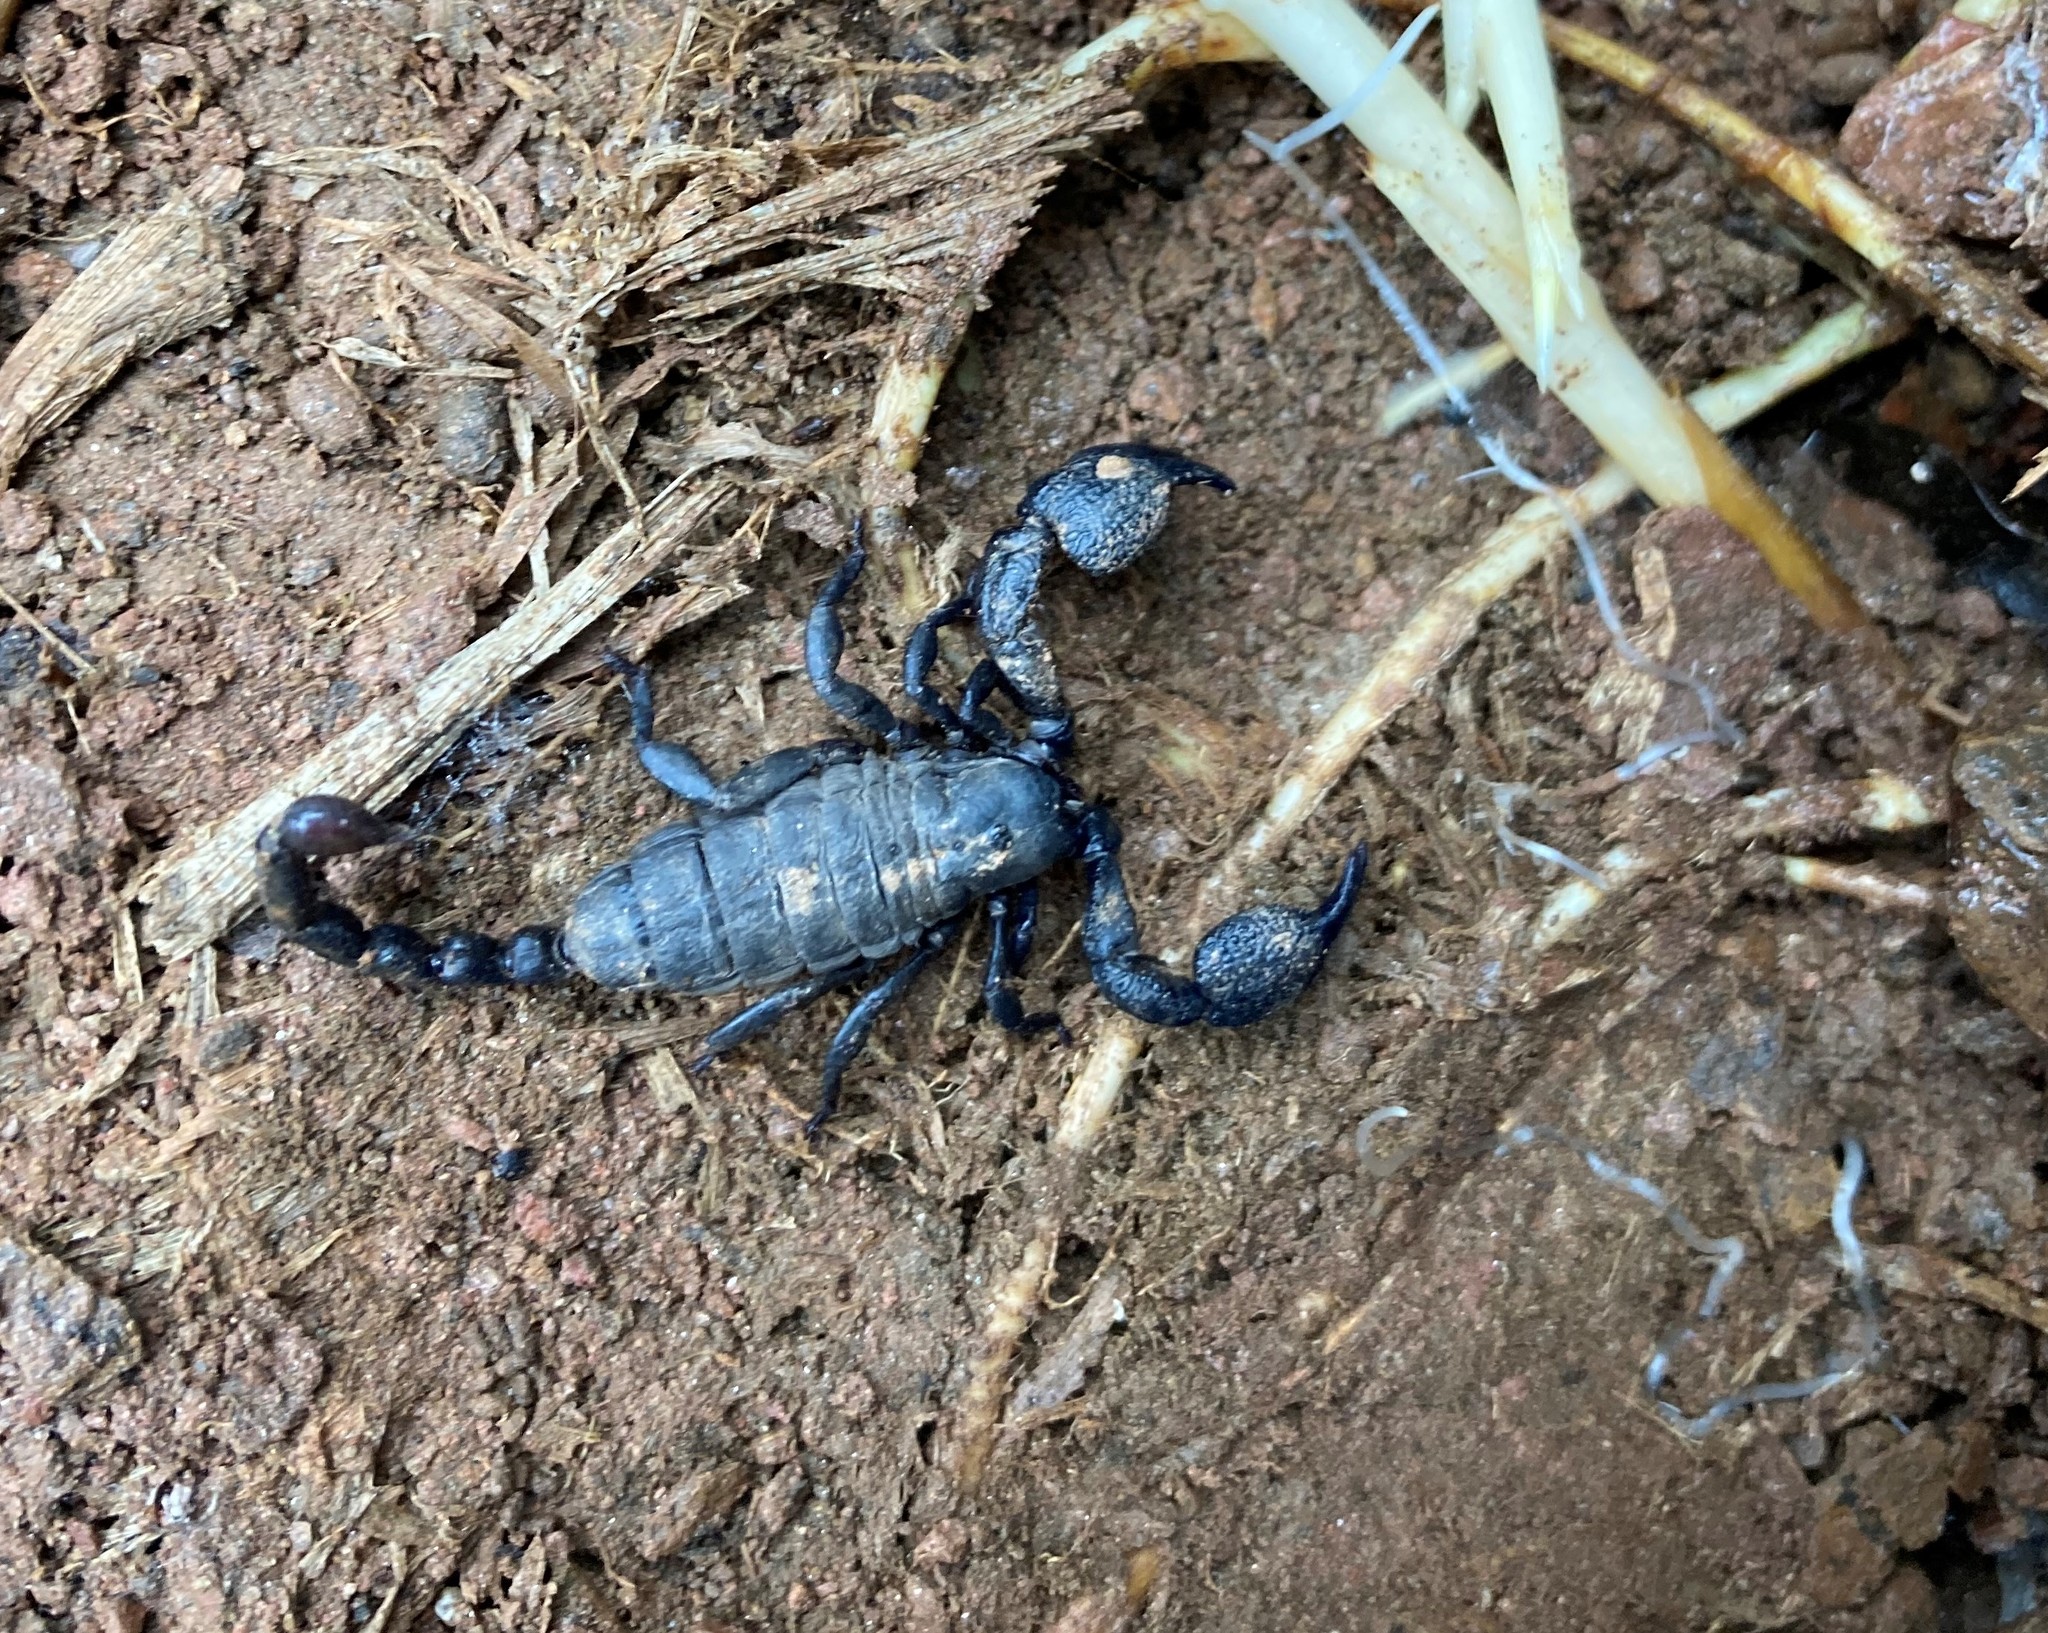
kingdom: Animalia
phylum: Arthropoda
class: Arachnida
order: Scorpiones
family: Hormuridae
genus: Cheloctonus
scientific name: Cheloctonus anthracinus
